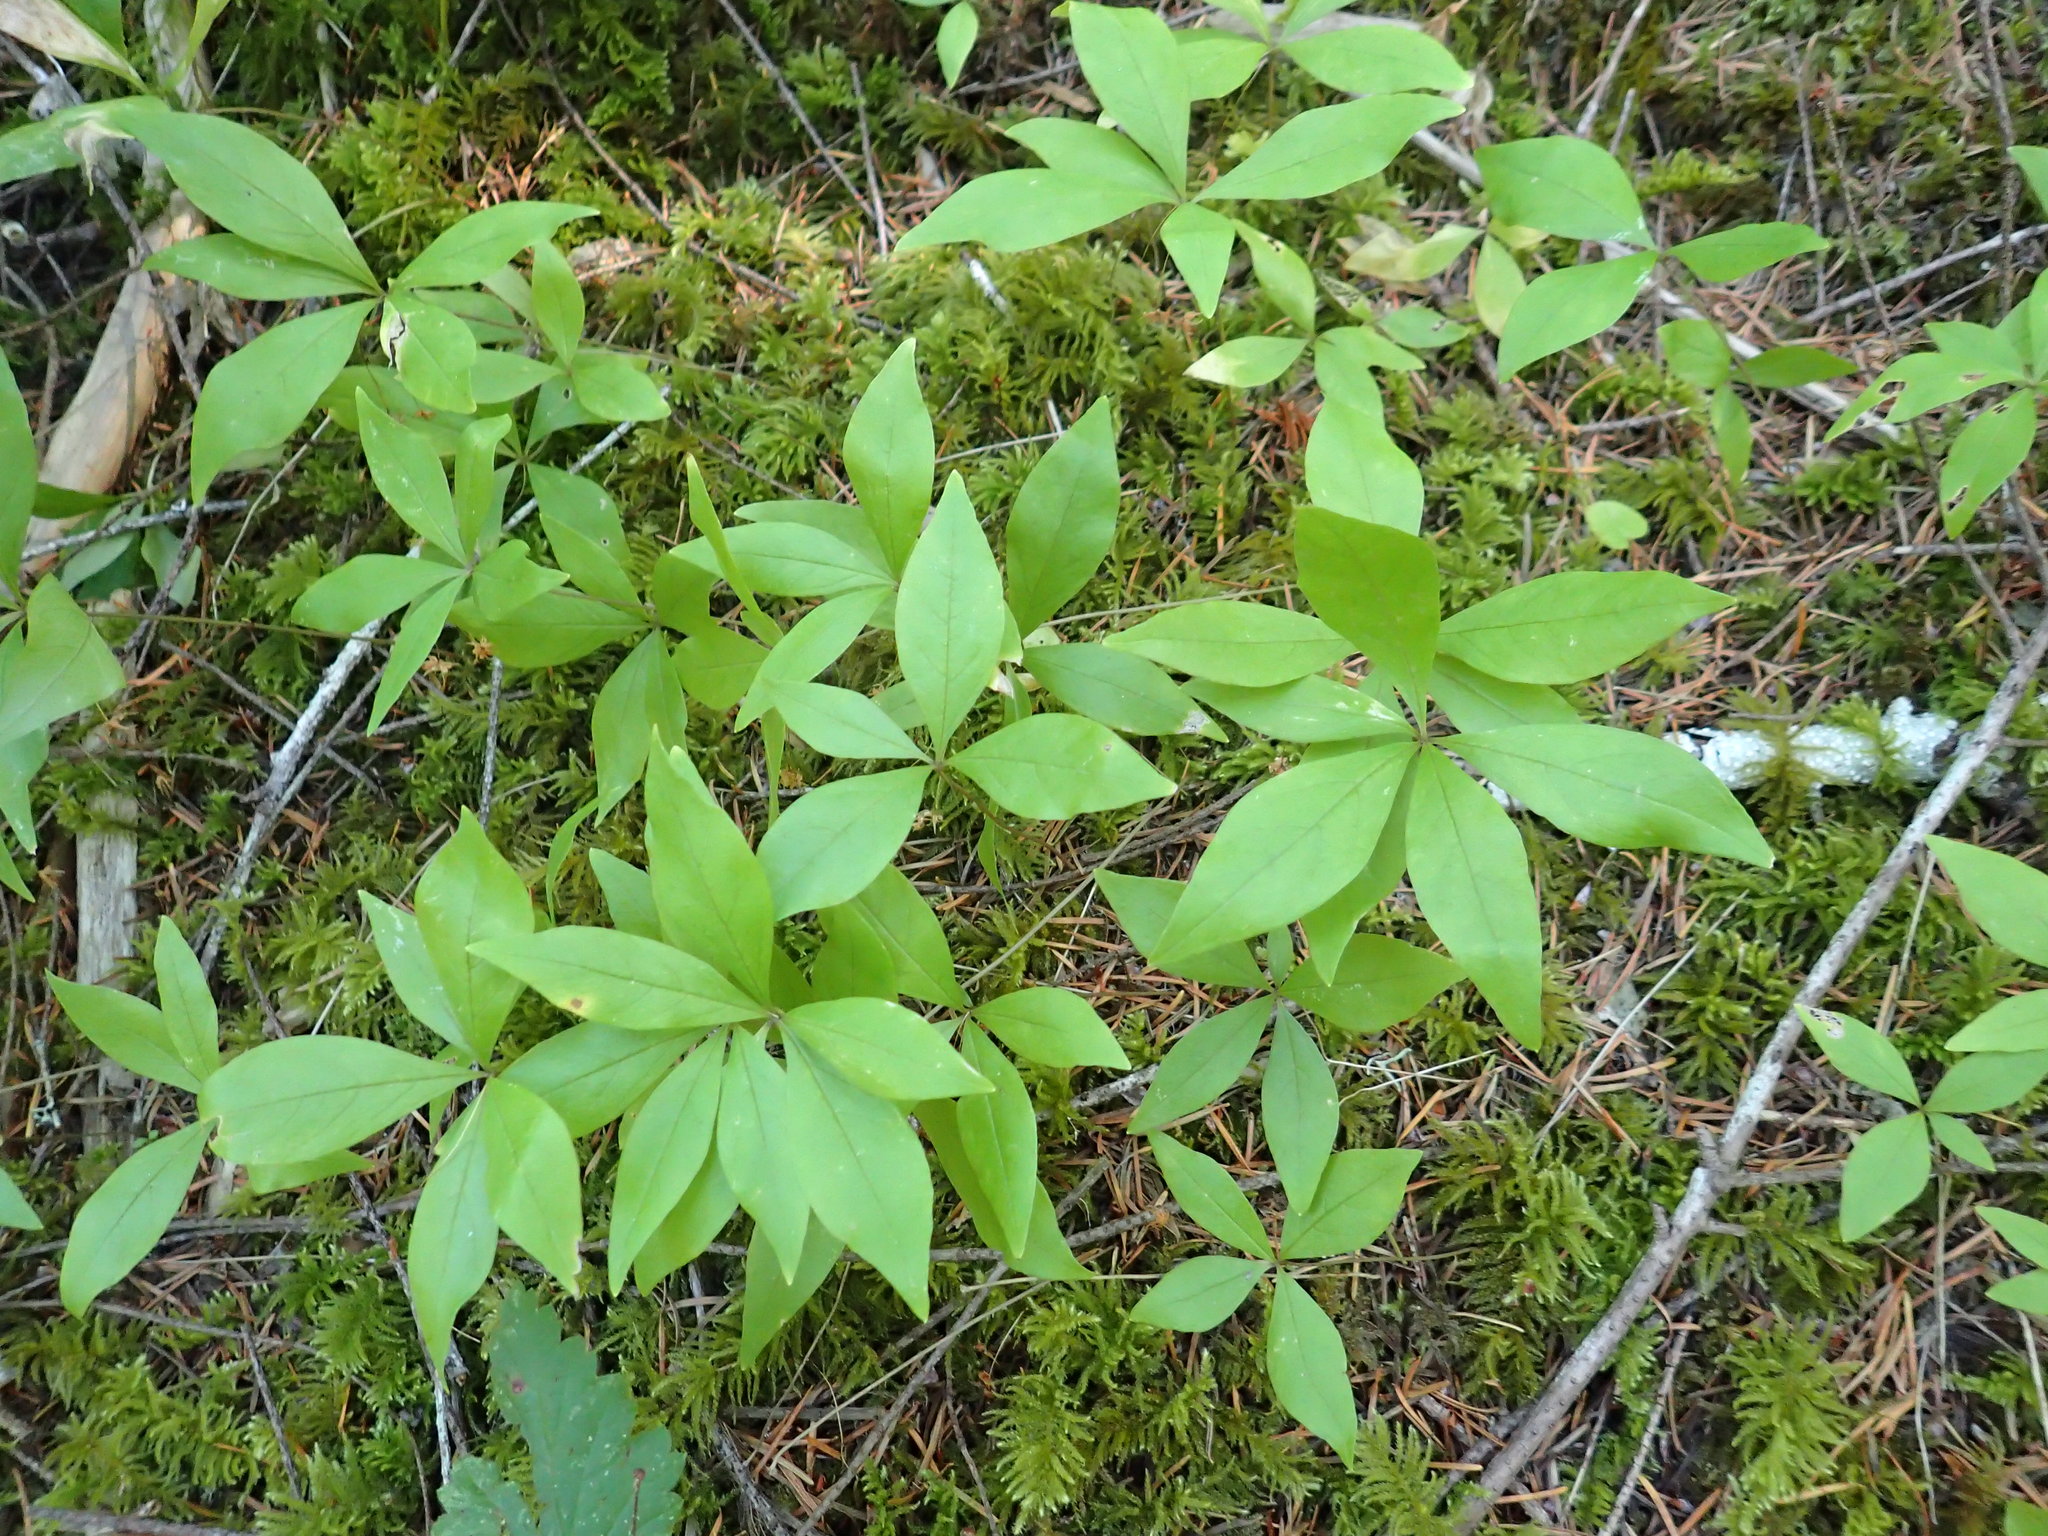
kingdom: Plantae
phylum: Tracheophyta
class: Magnoliopsida
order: Ericales
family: Primulaceae
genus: Lysimachia
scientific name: Lysimachia latifolia
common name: Pacific starflower
